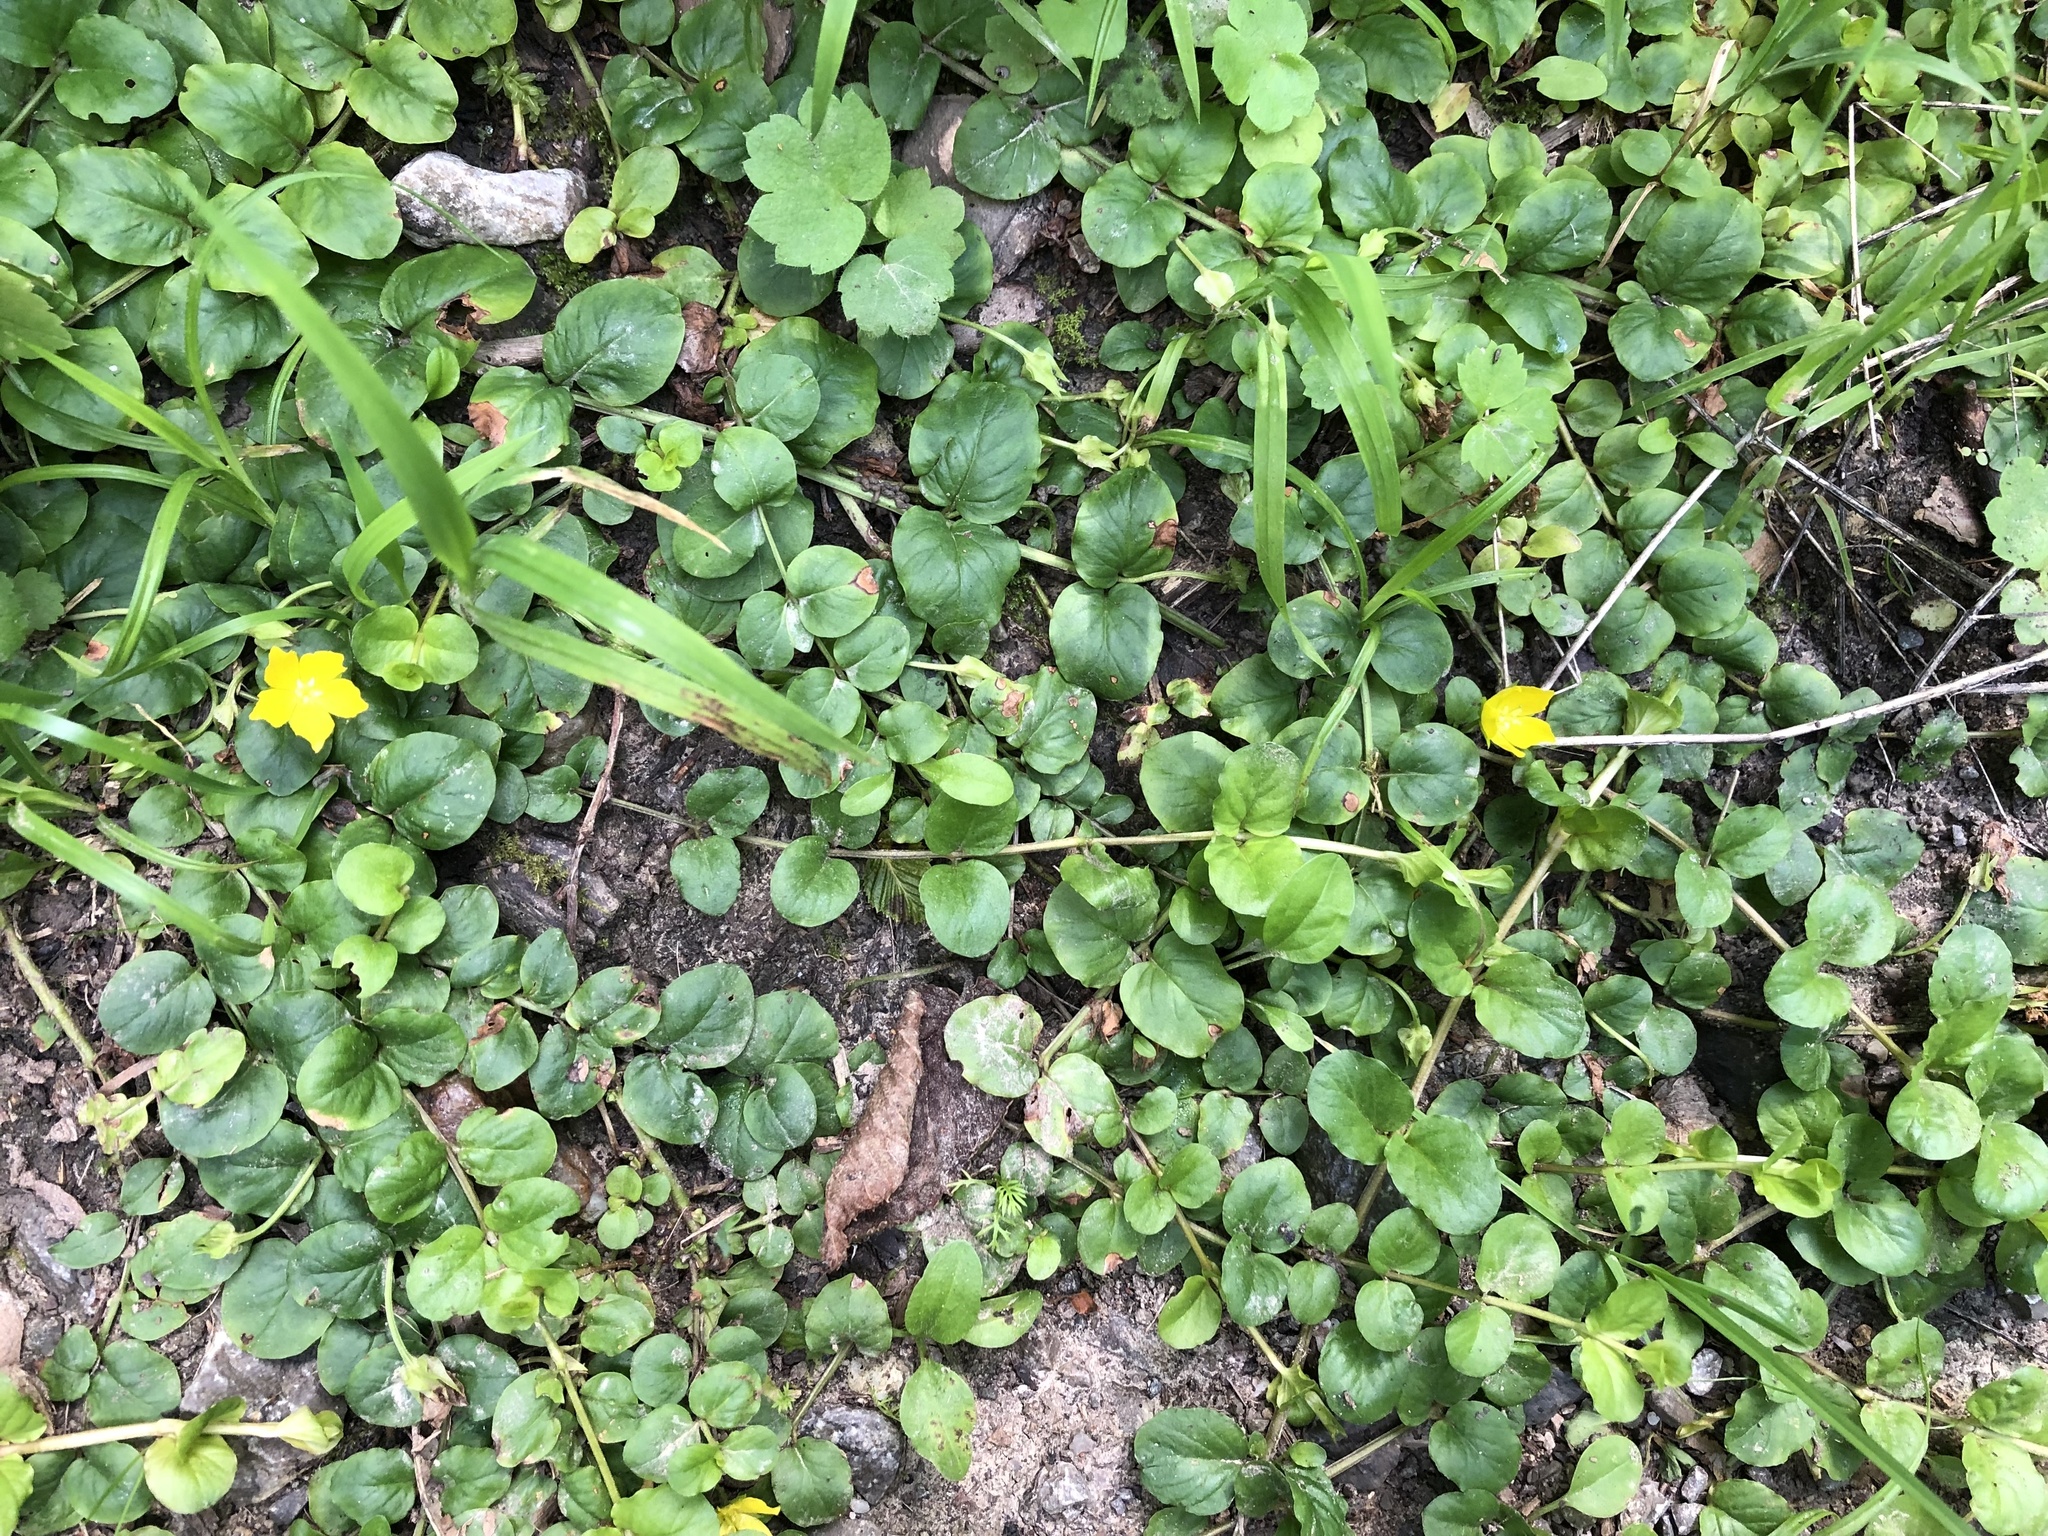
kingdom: Plantae
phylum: Tracheophyta
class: Magnoliopsida
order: Ericales
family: Primulaceae
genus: Lysimachia
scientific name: Lysimachia nummularia
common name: Moneywort
